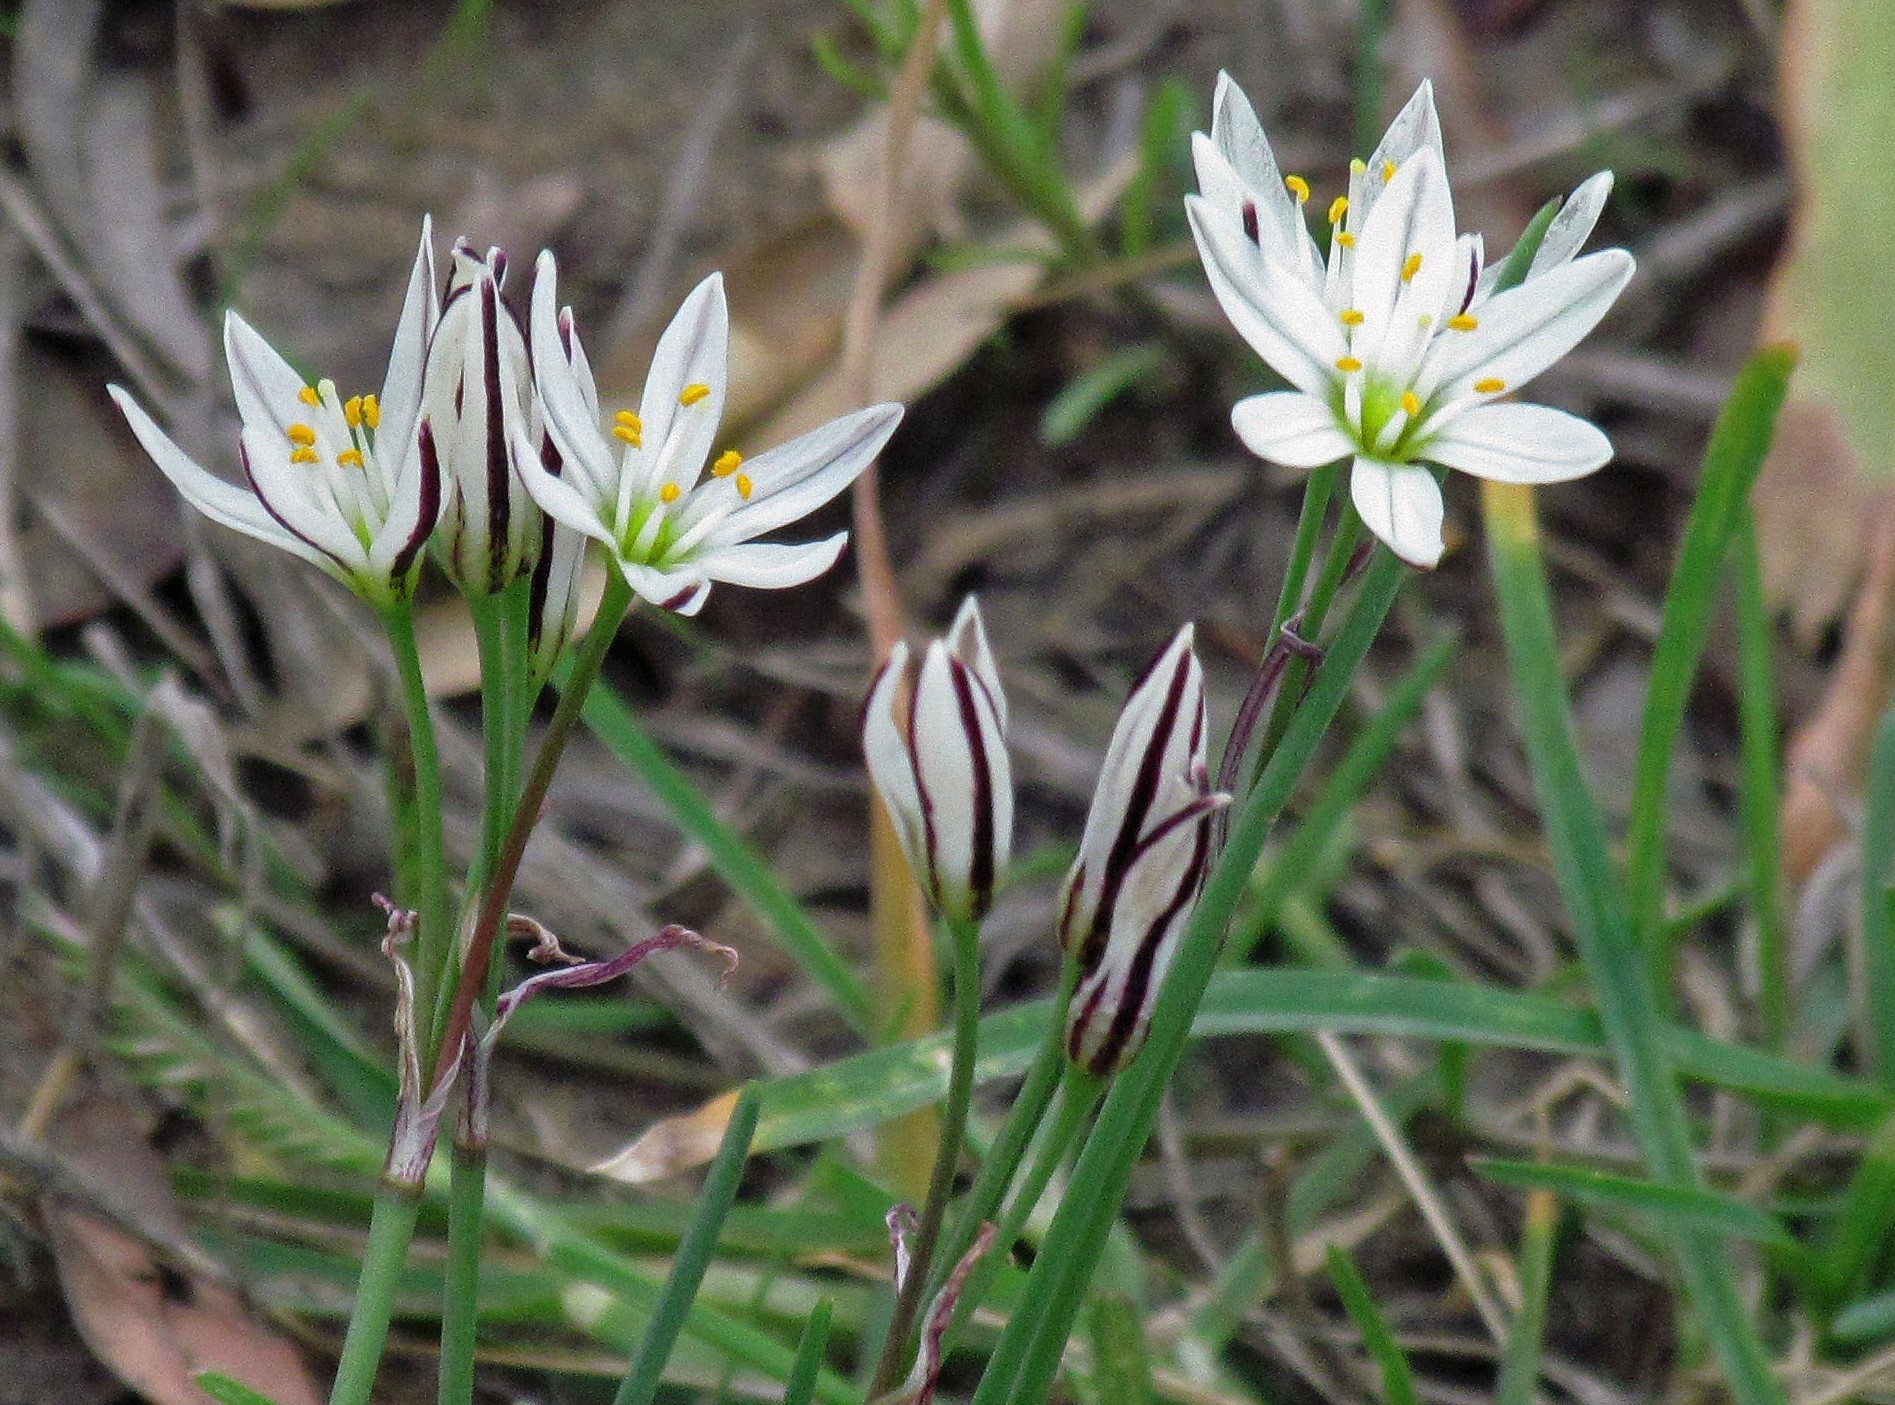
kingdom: Plantae
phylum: Tracheophyta
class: Liliopsida
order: Asparagales
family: Amaryllidaceae
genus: Nothoscordum
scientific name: Nothoscordum bivalve
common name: Crow-poison
